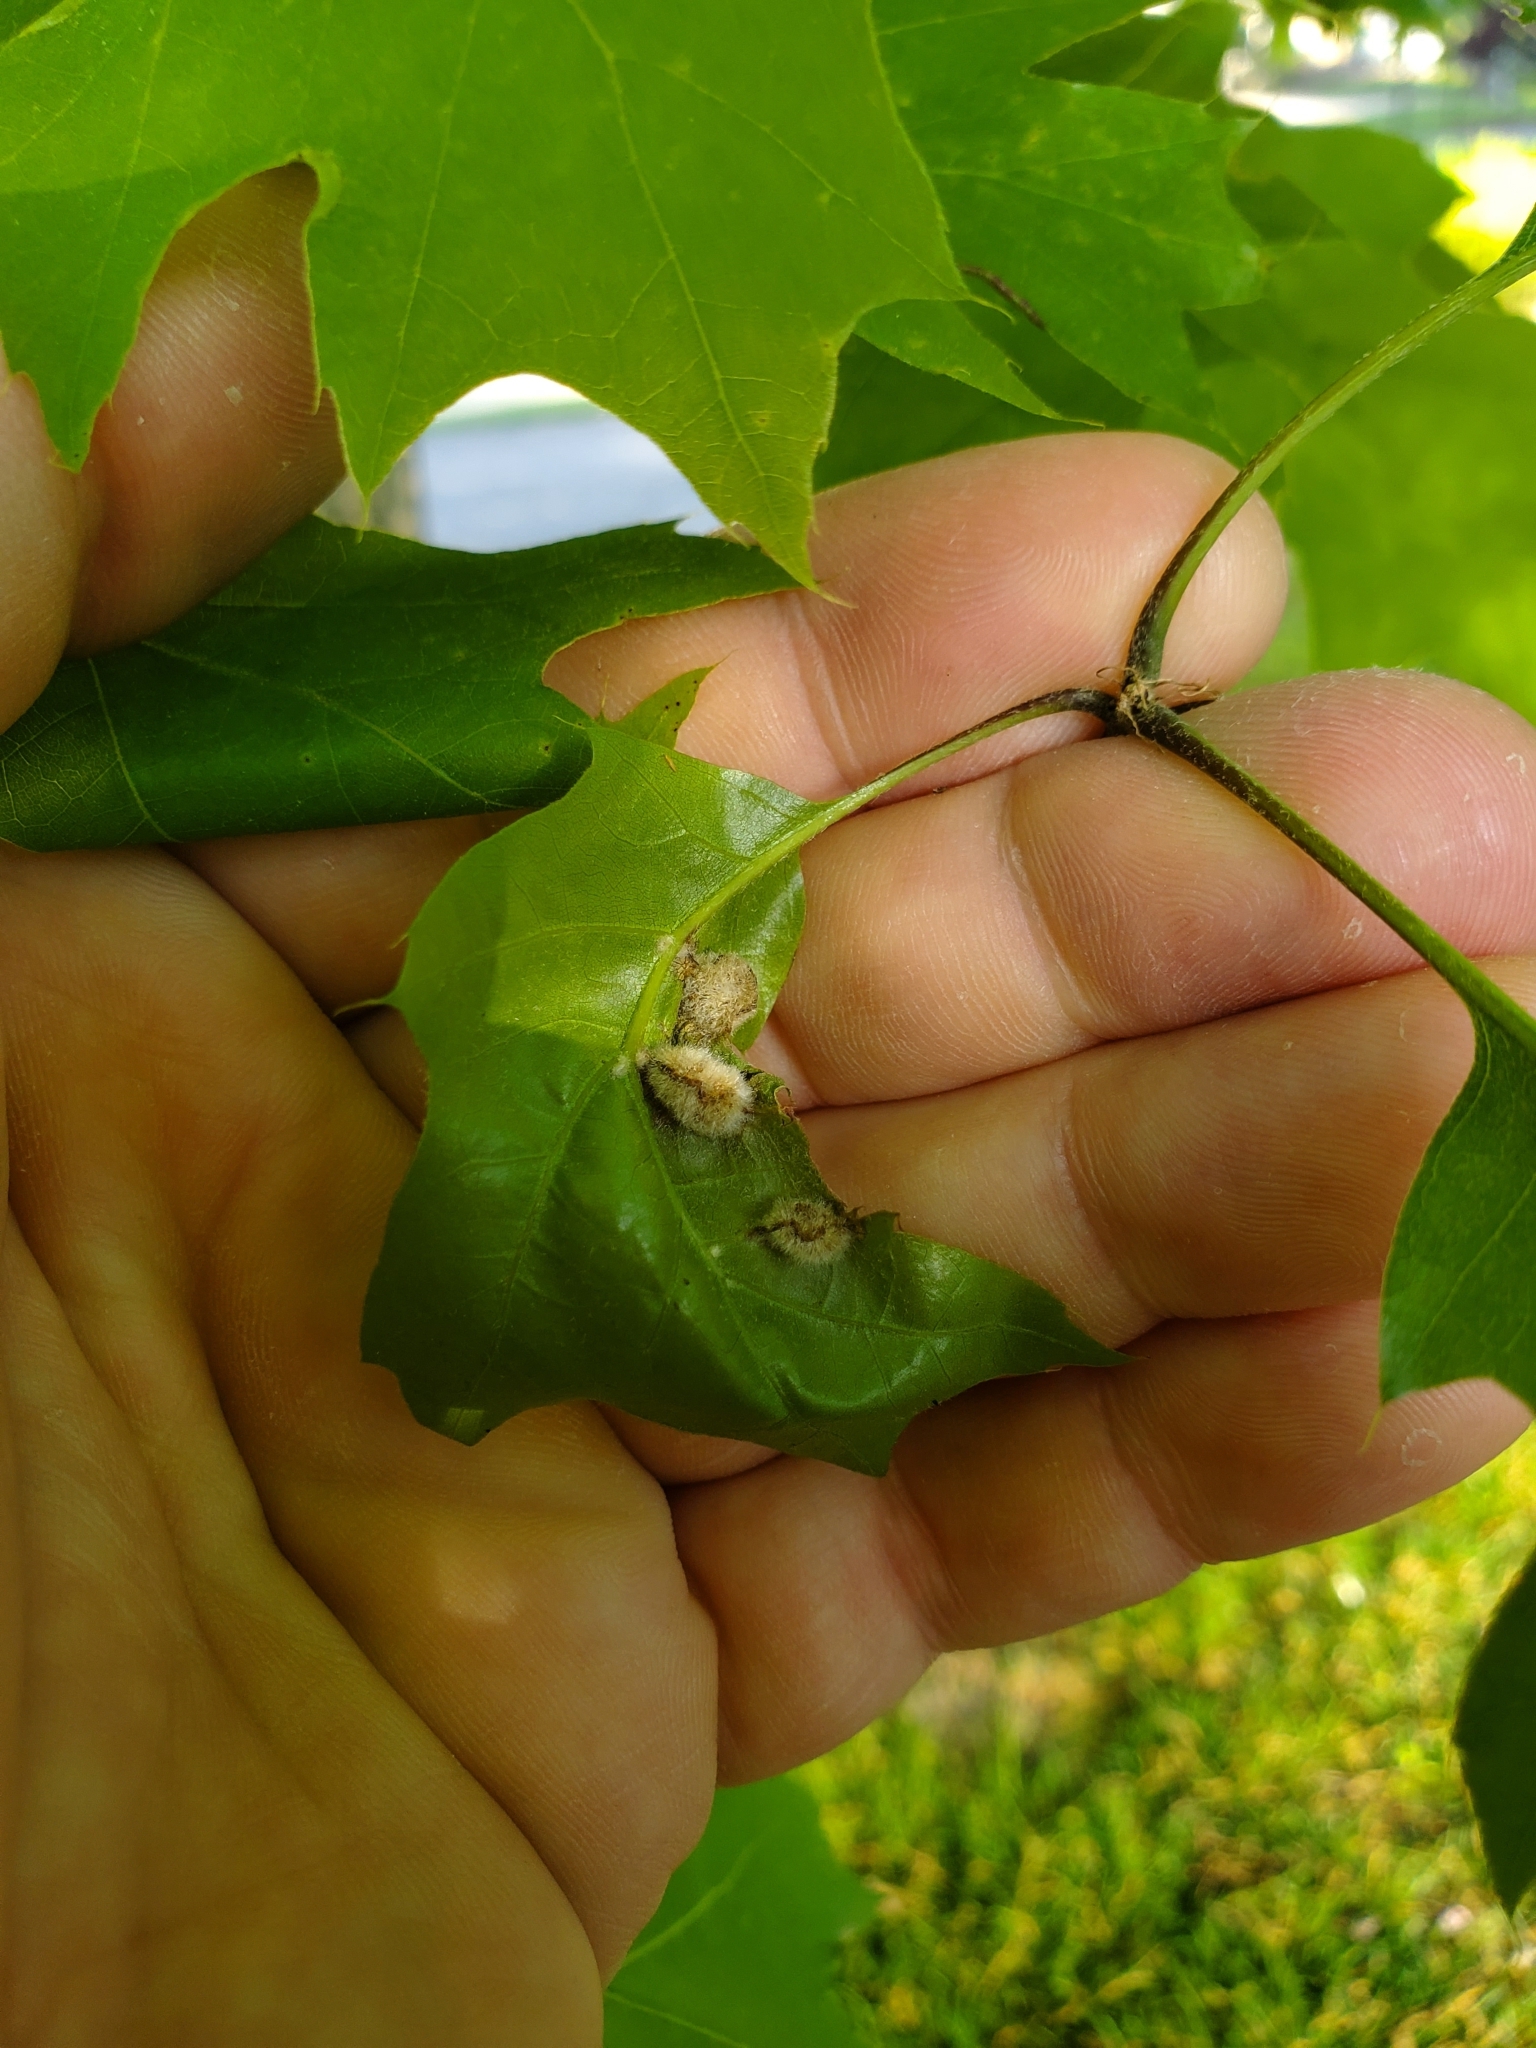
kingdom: Animalia
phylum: Arthropoda
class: Insecta
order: Diptera
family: Cecidomyiidae
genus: Macrodiplosis
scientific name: Macrodiplosis niveipila
